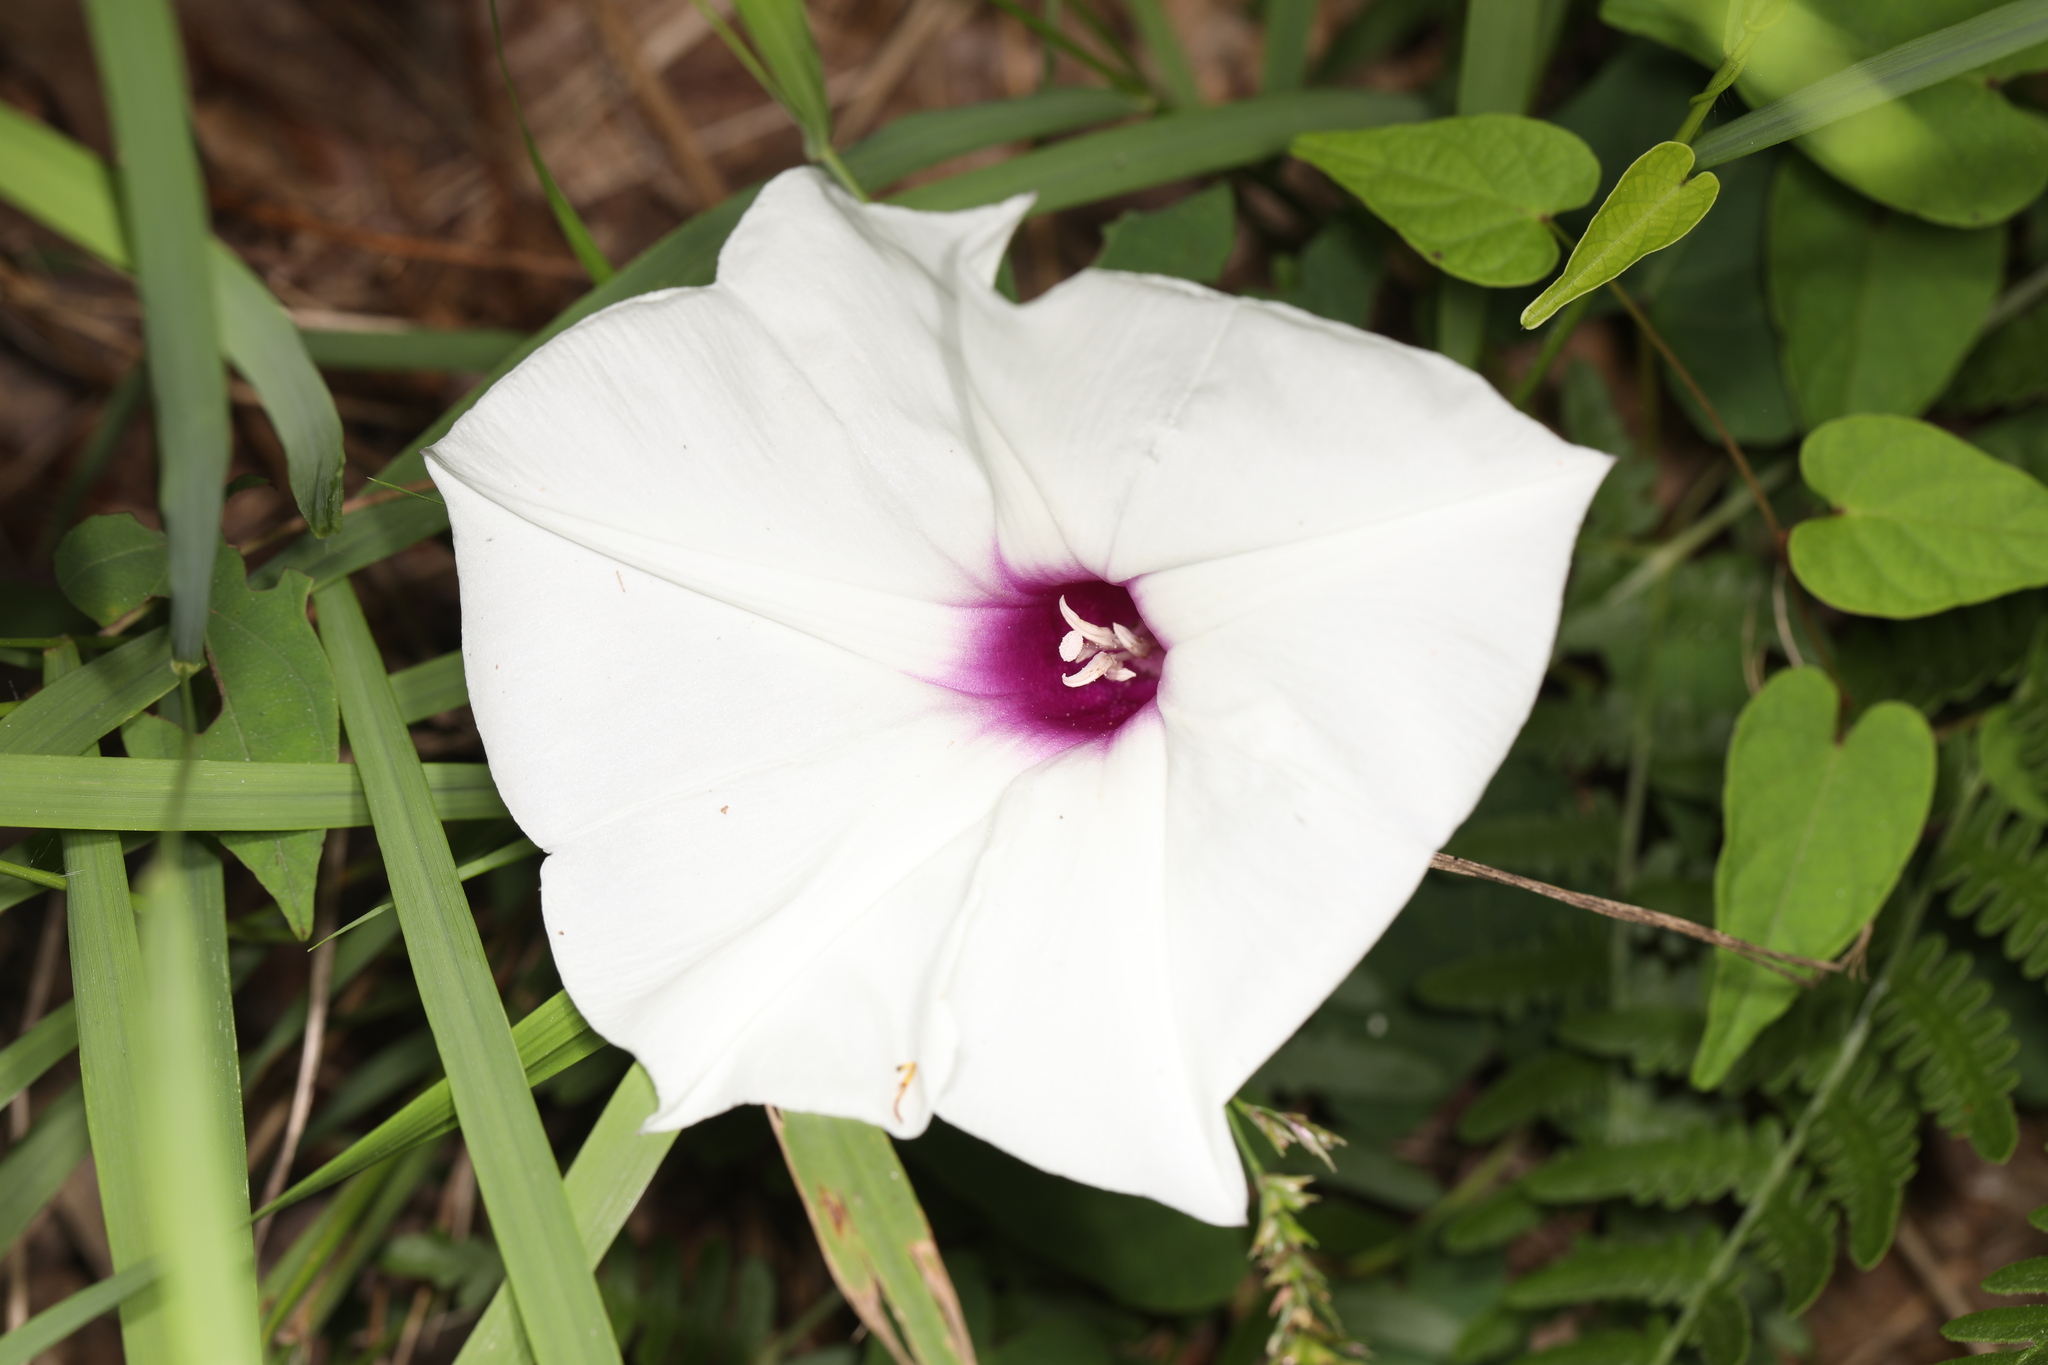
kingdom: Plantae
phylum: Tracheophyta
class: Magnoliopsida
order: Solanales
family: Convolvulaceae
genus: Ipomoea
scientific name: Ipomoea pandurata
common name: Man-of-the-earth
